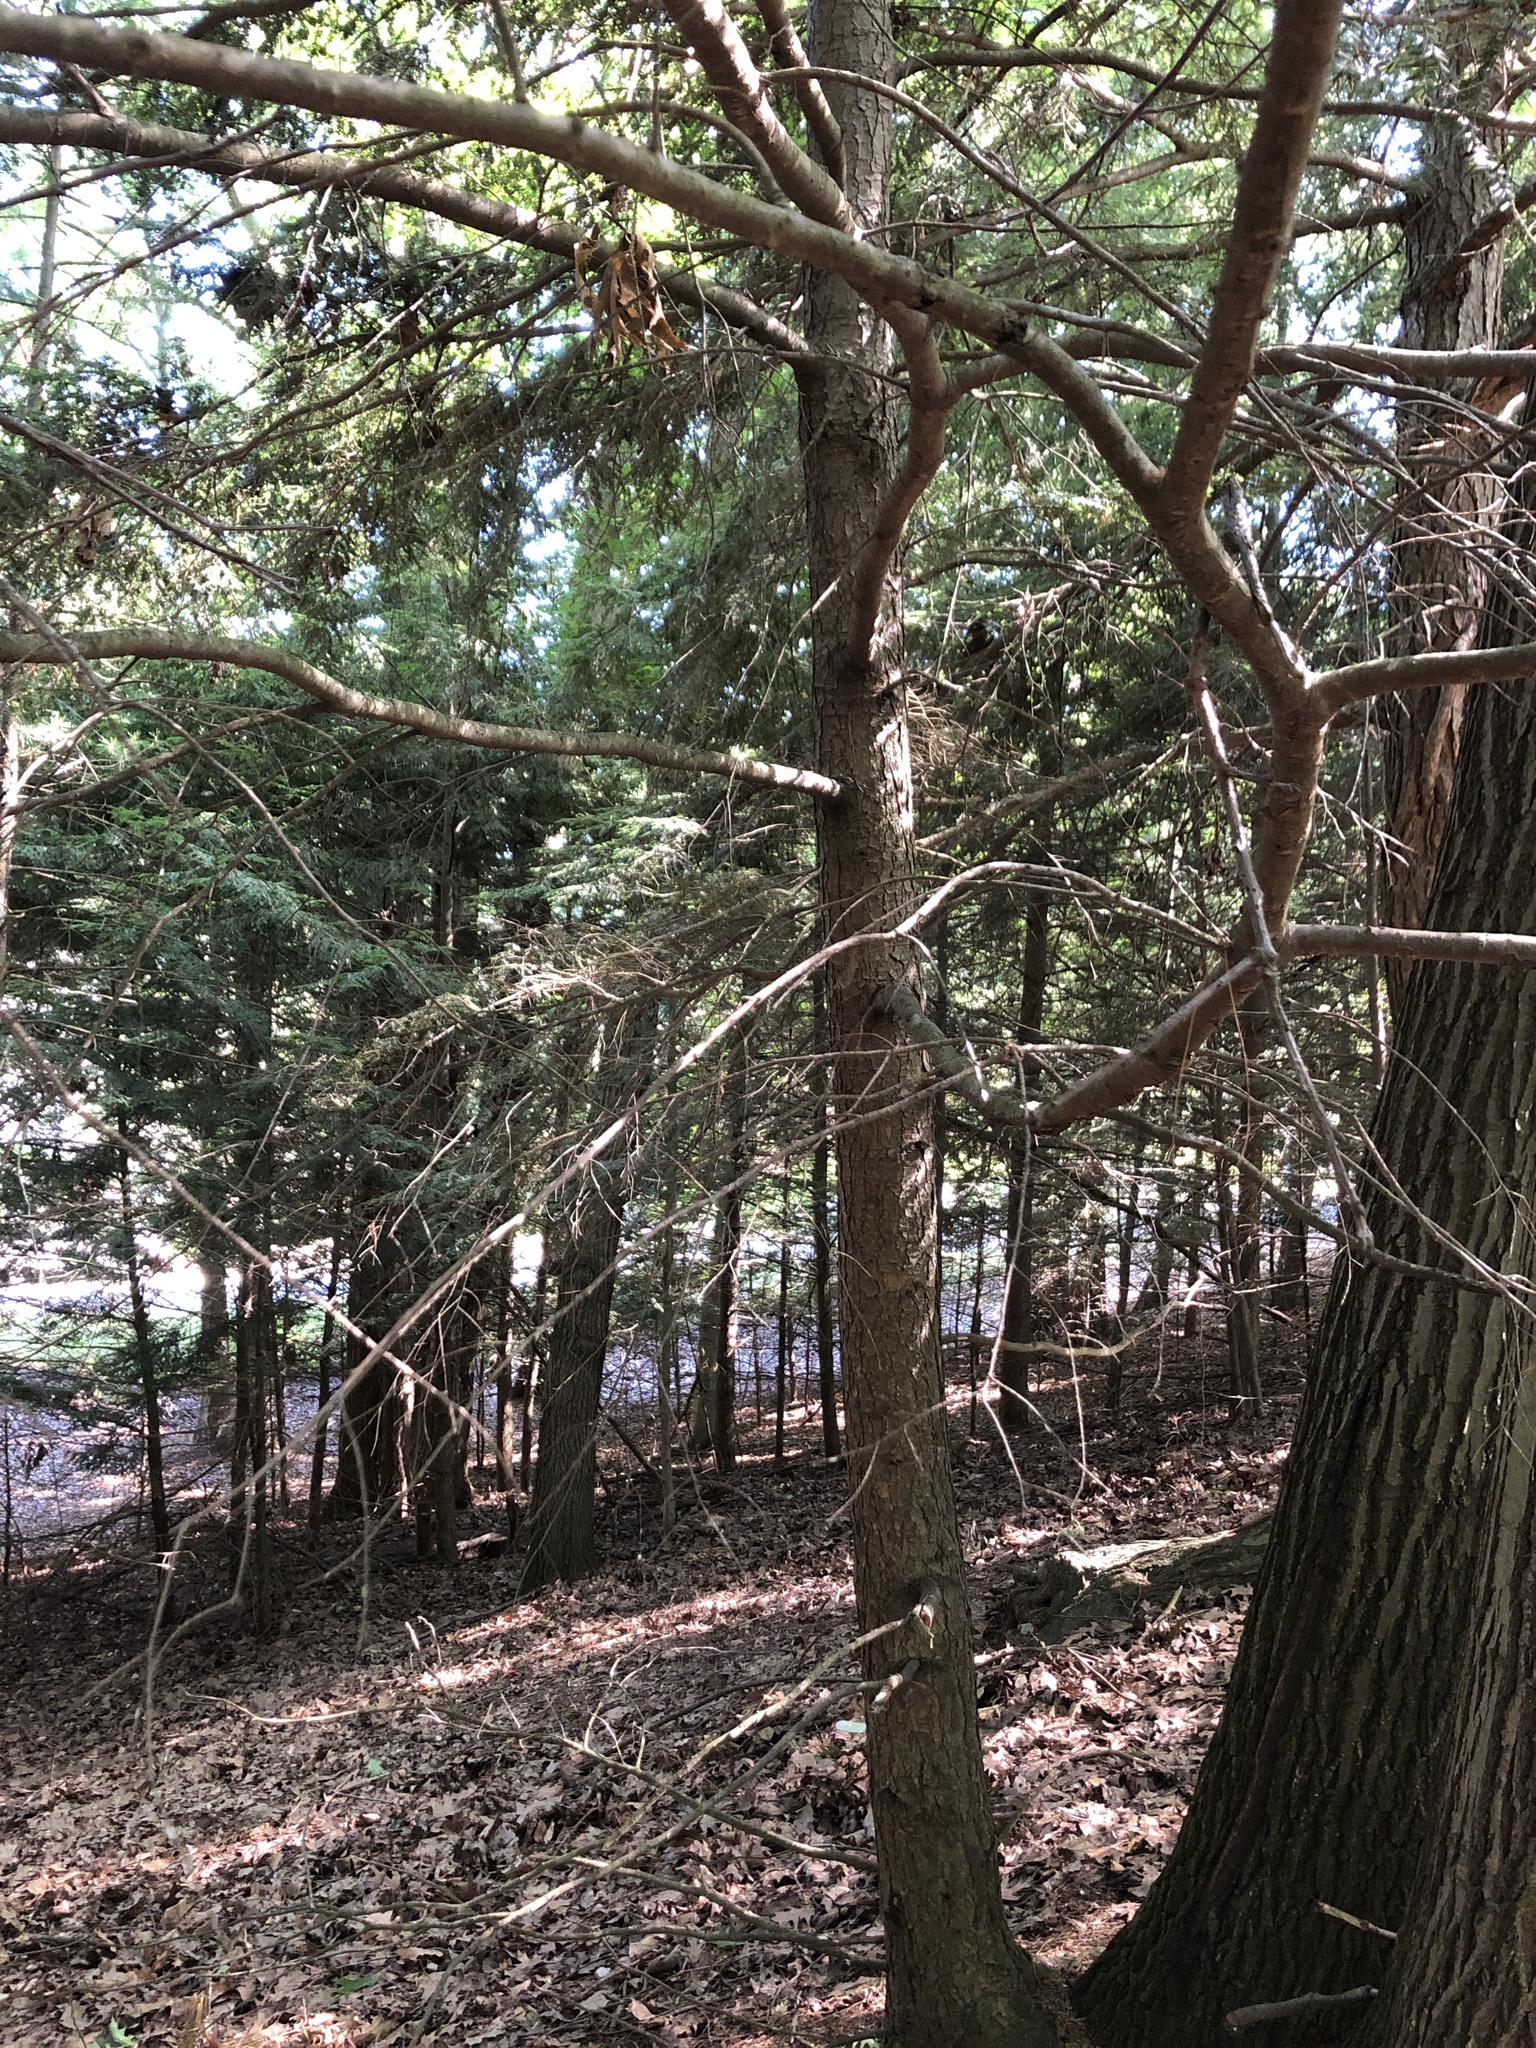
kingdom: Plantae
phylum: Tracheophyta
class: Pinopsida
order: Pinales
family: Pinaceae
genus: Tsuga
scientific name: Tsuga canadensis
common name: Eastern hemlock
